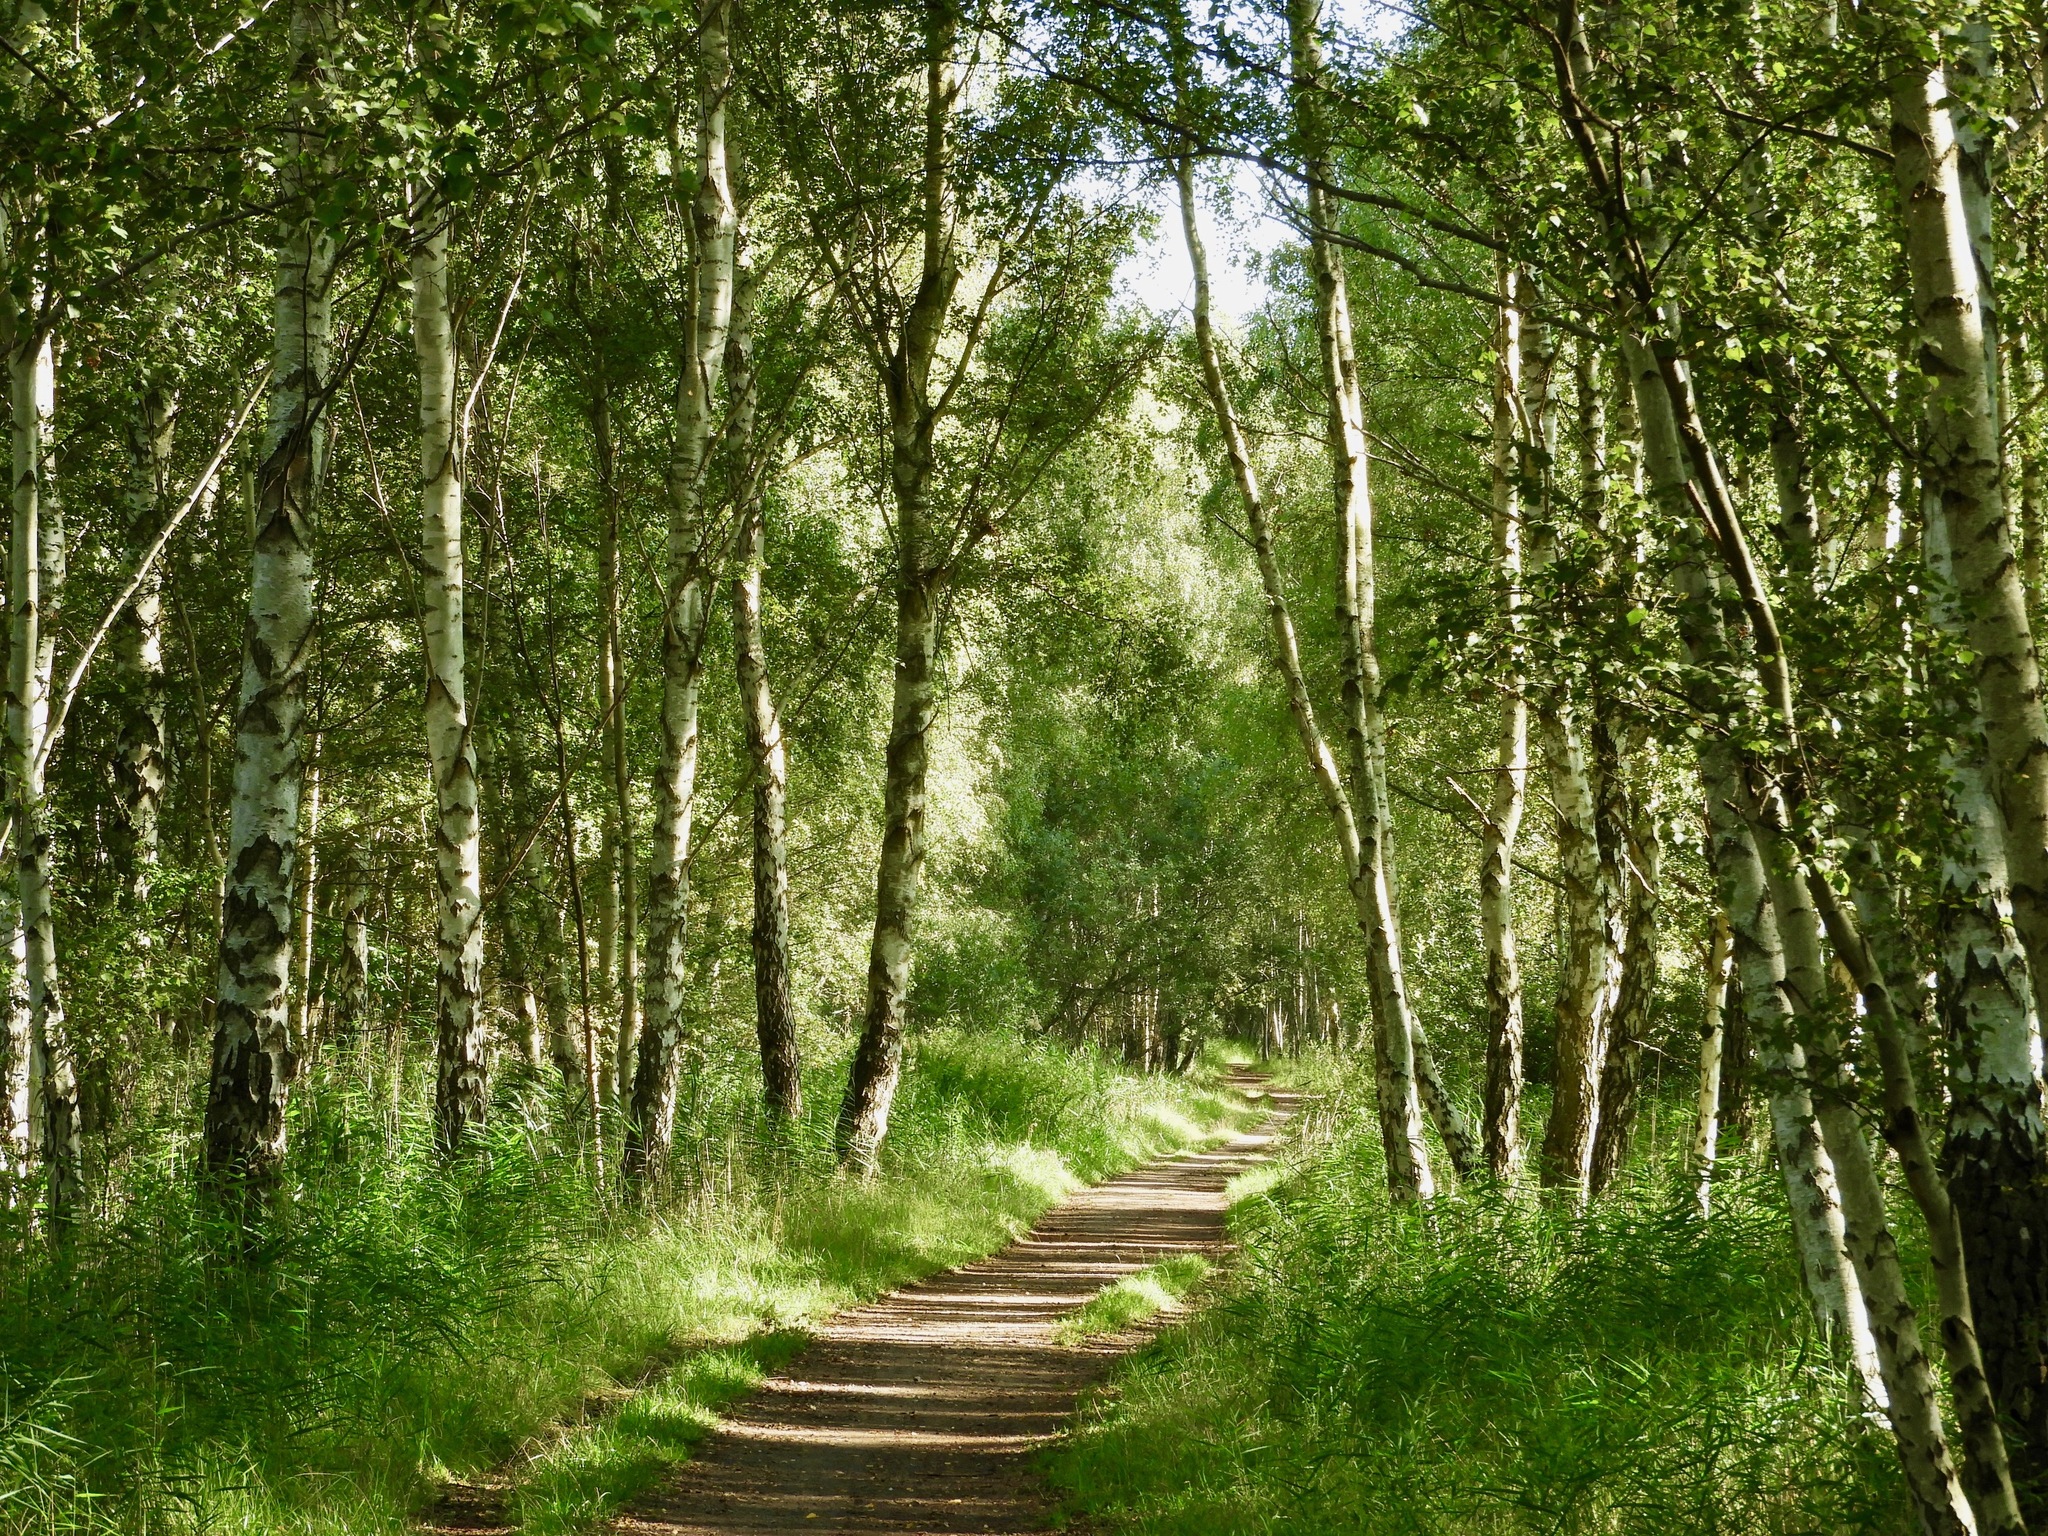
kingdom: Plantae
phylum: Tracheophyta
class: Magnoliopsida
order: Fagales
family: Betulaceae
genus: Betula
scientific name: Betula pubescens
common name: Downy birch
